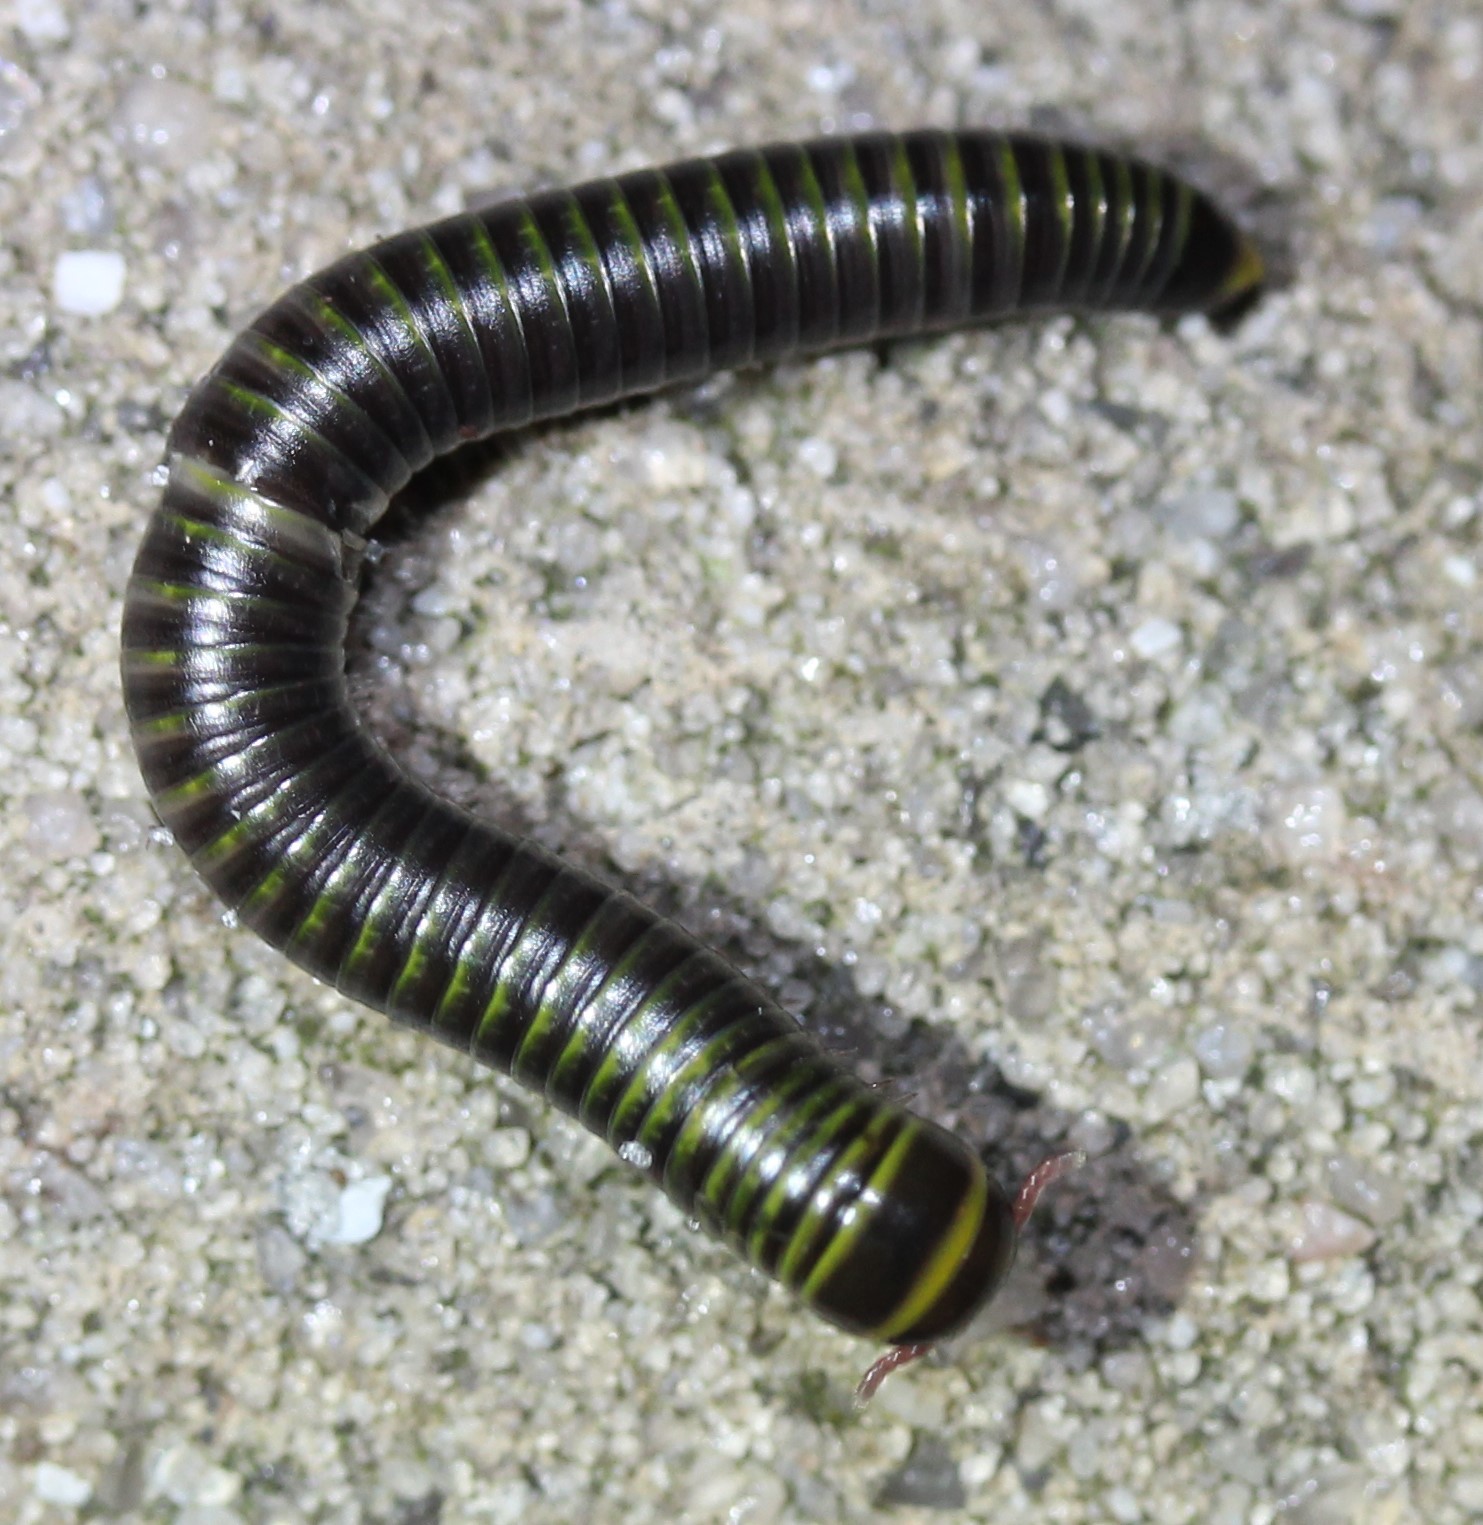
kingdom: Animalia
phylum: Arthropoda
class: Diplopoda
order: Spirobolida
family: Rhinocricidae
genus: Anadenobolus
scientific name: Anadenobolus monilicornis
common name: Caribbean millipede
